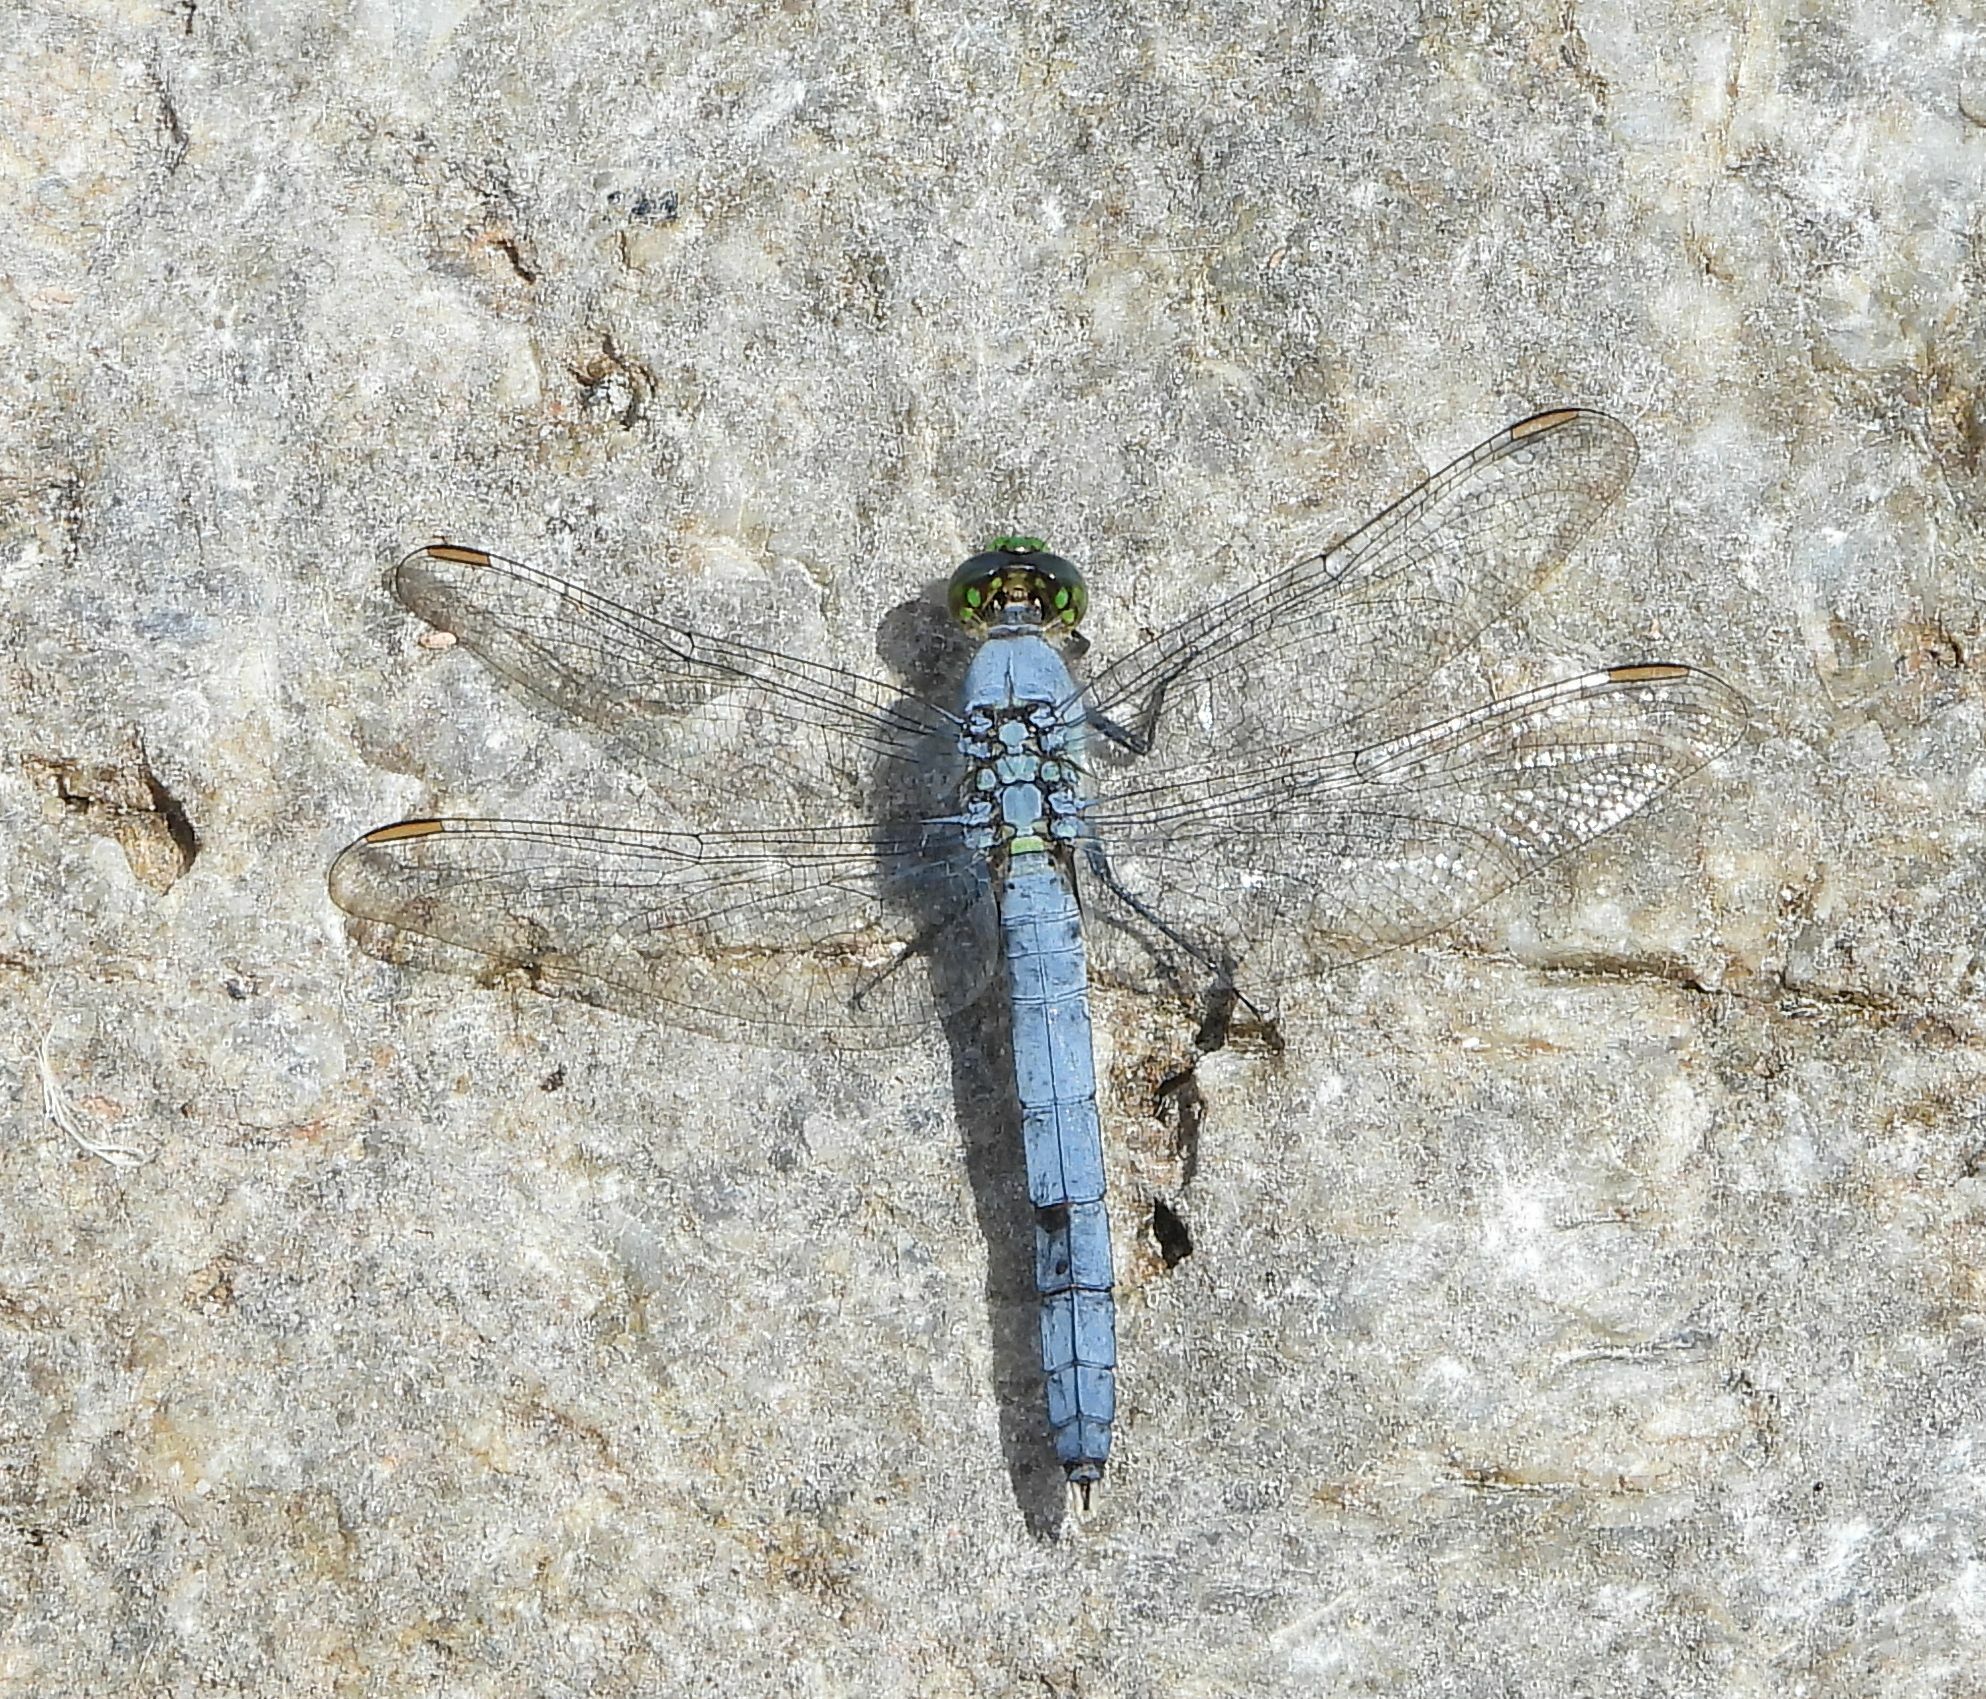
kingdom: Animalia
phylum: Arthropoda
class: Insecta
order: Odonata
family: Libellulidae
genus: Erythemis
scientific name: Erythemis simplicicollis
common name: Eastern pondhawk
